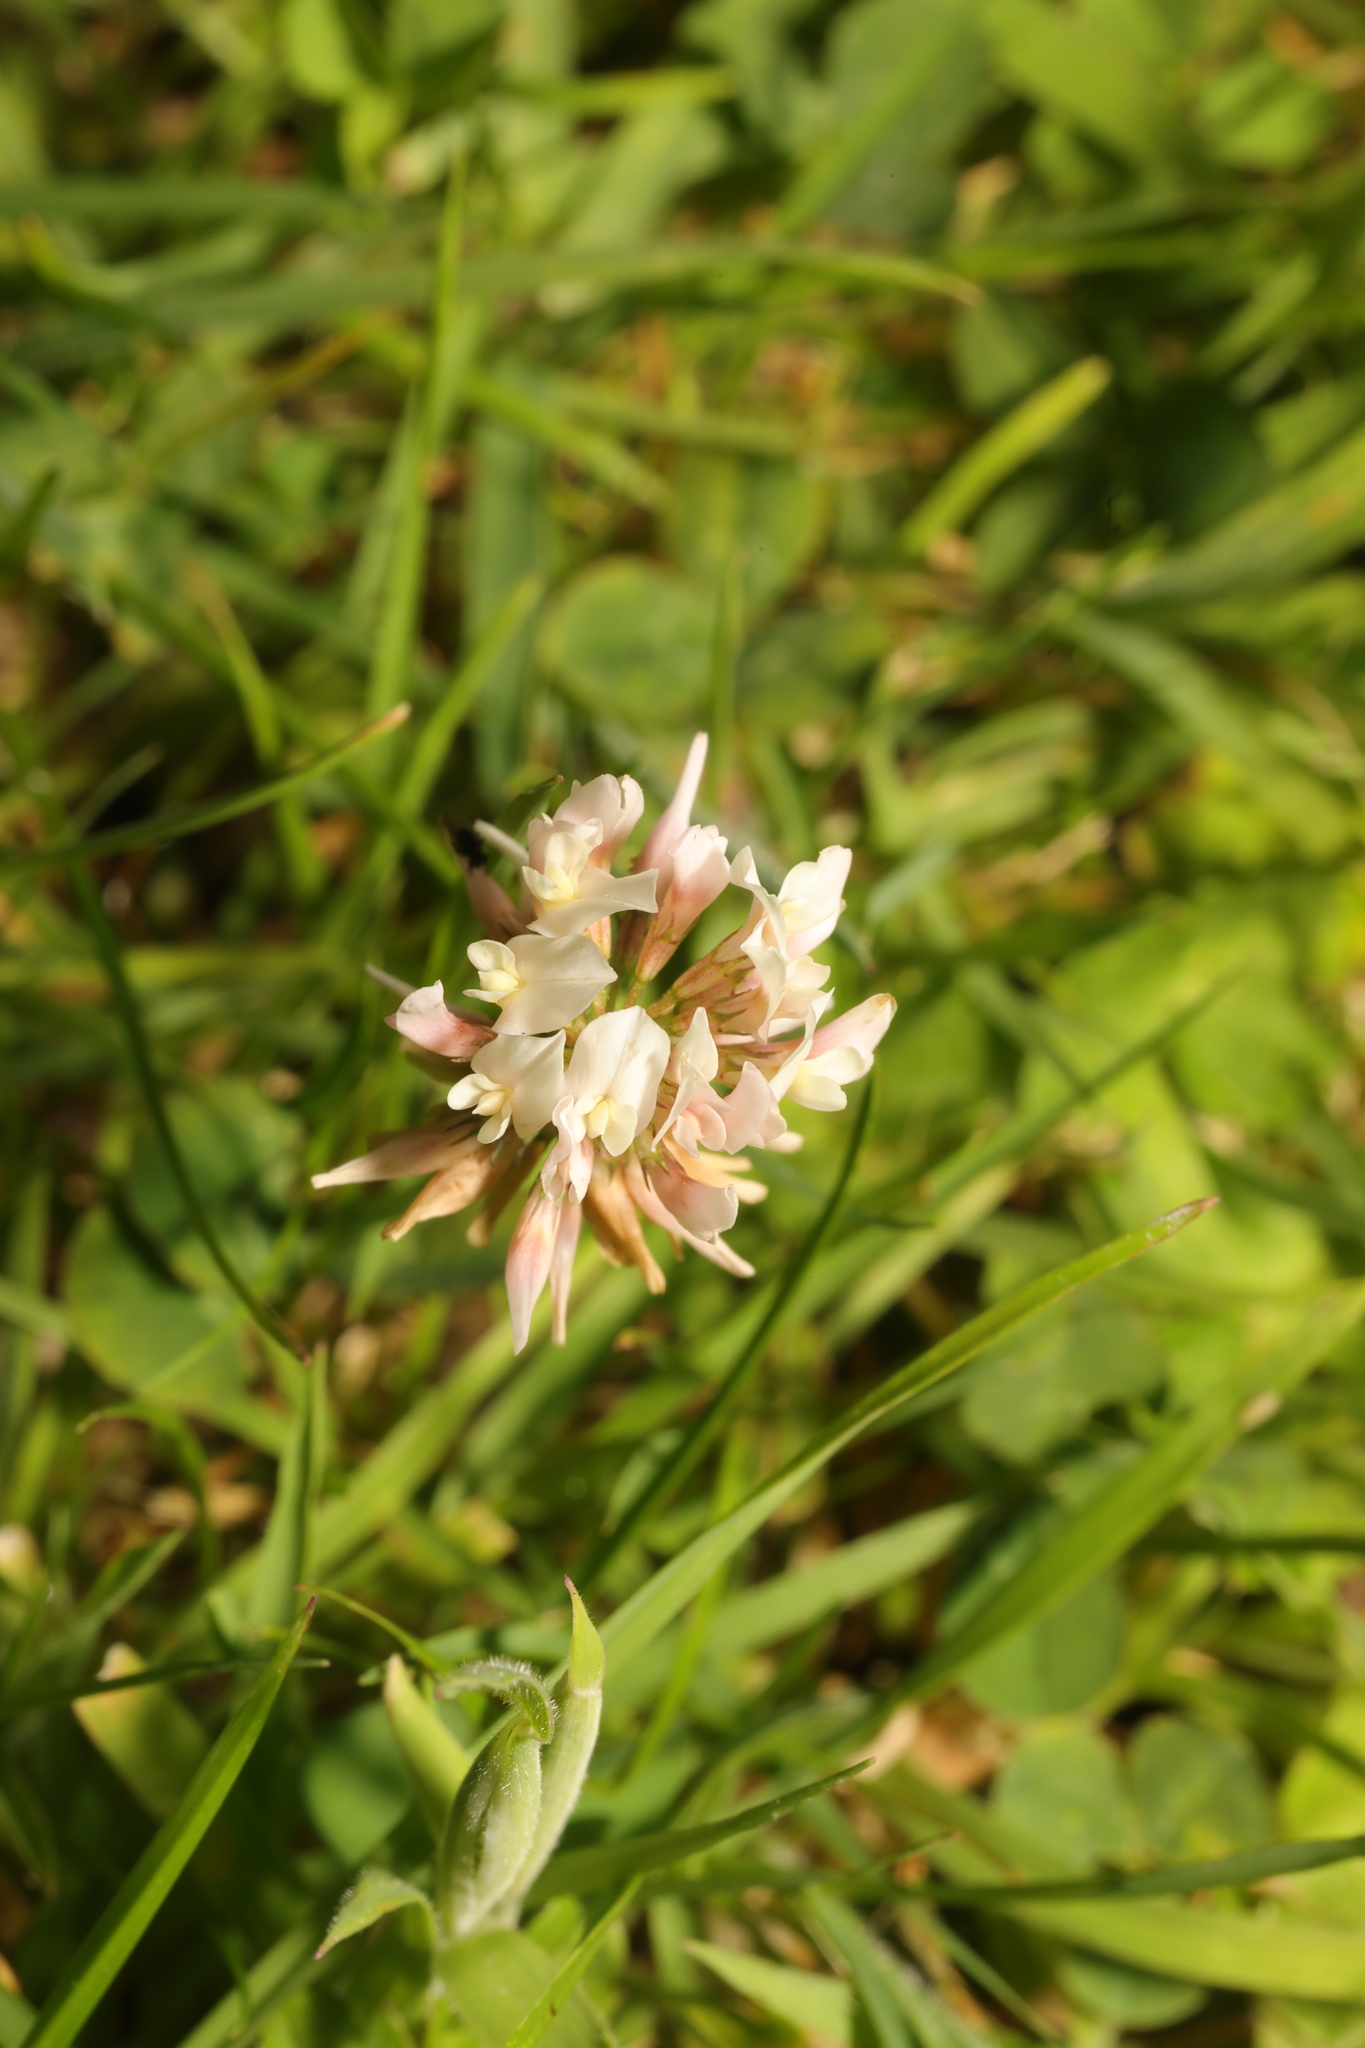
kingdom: Plantae
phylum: Tracheophyta
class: Magnoliopsida
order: Fabales
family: Fabaceae
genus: Trifolium
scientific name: Trifolium repens
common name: White clover
